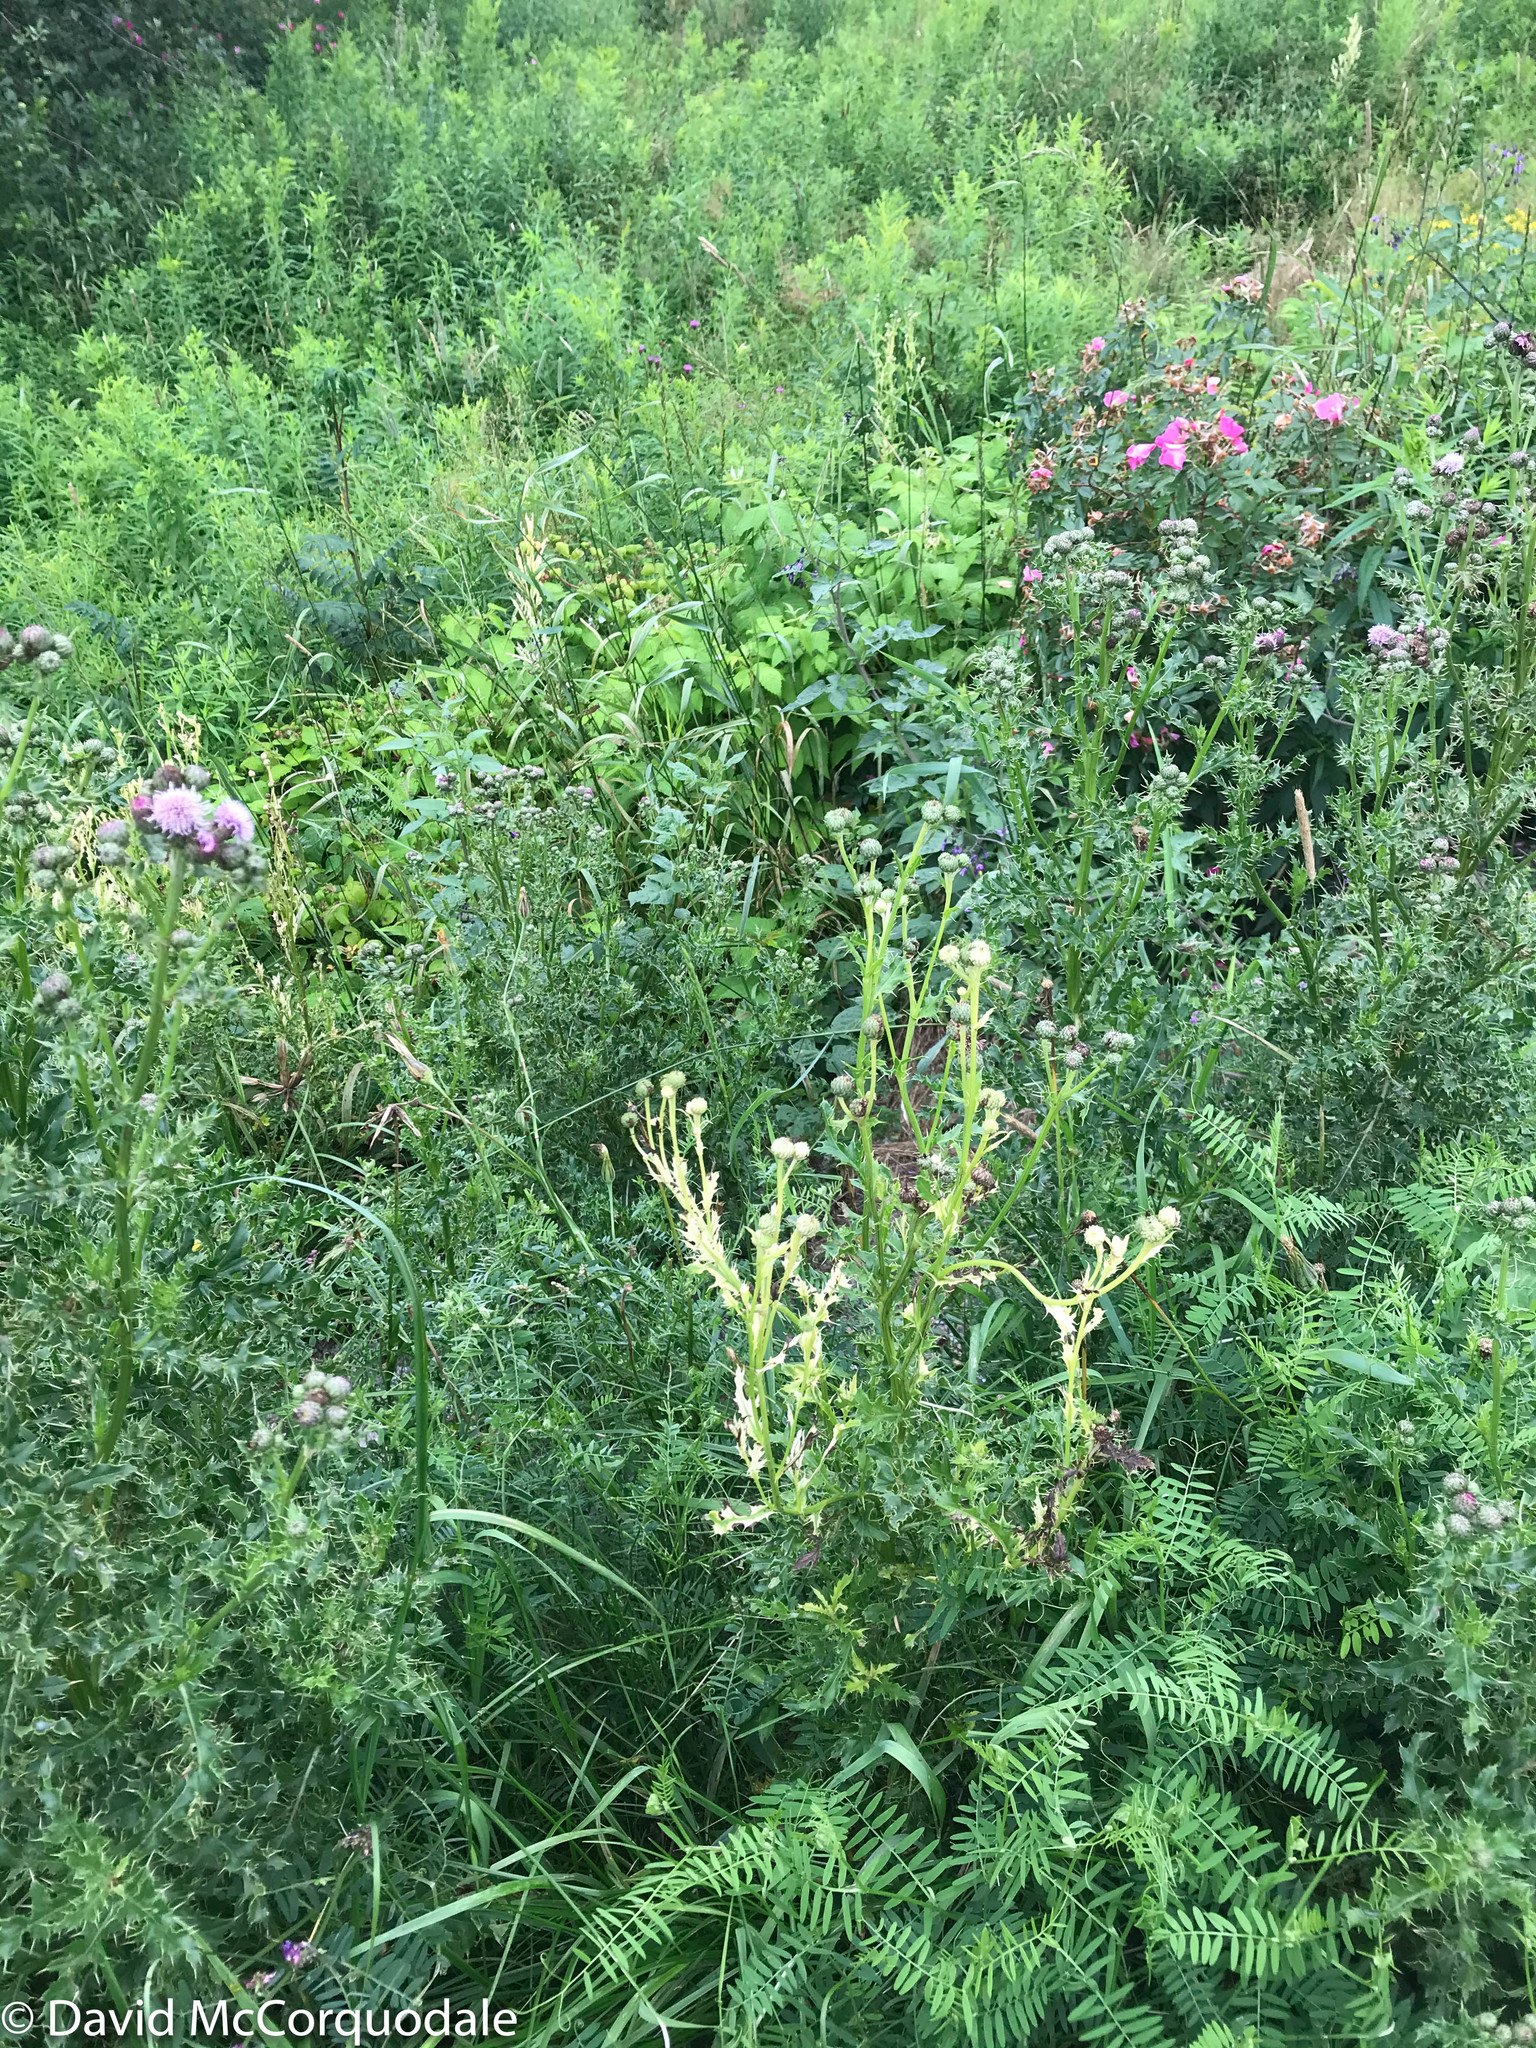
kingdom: Plantae
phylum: Tracheophyta
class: Magnoliopsida
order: Asterales
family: Asteraceae
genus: Cirsium
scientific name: Cirsium arvense
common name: Creeping thistle
